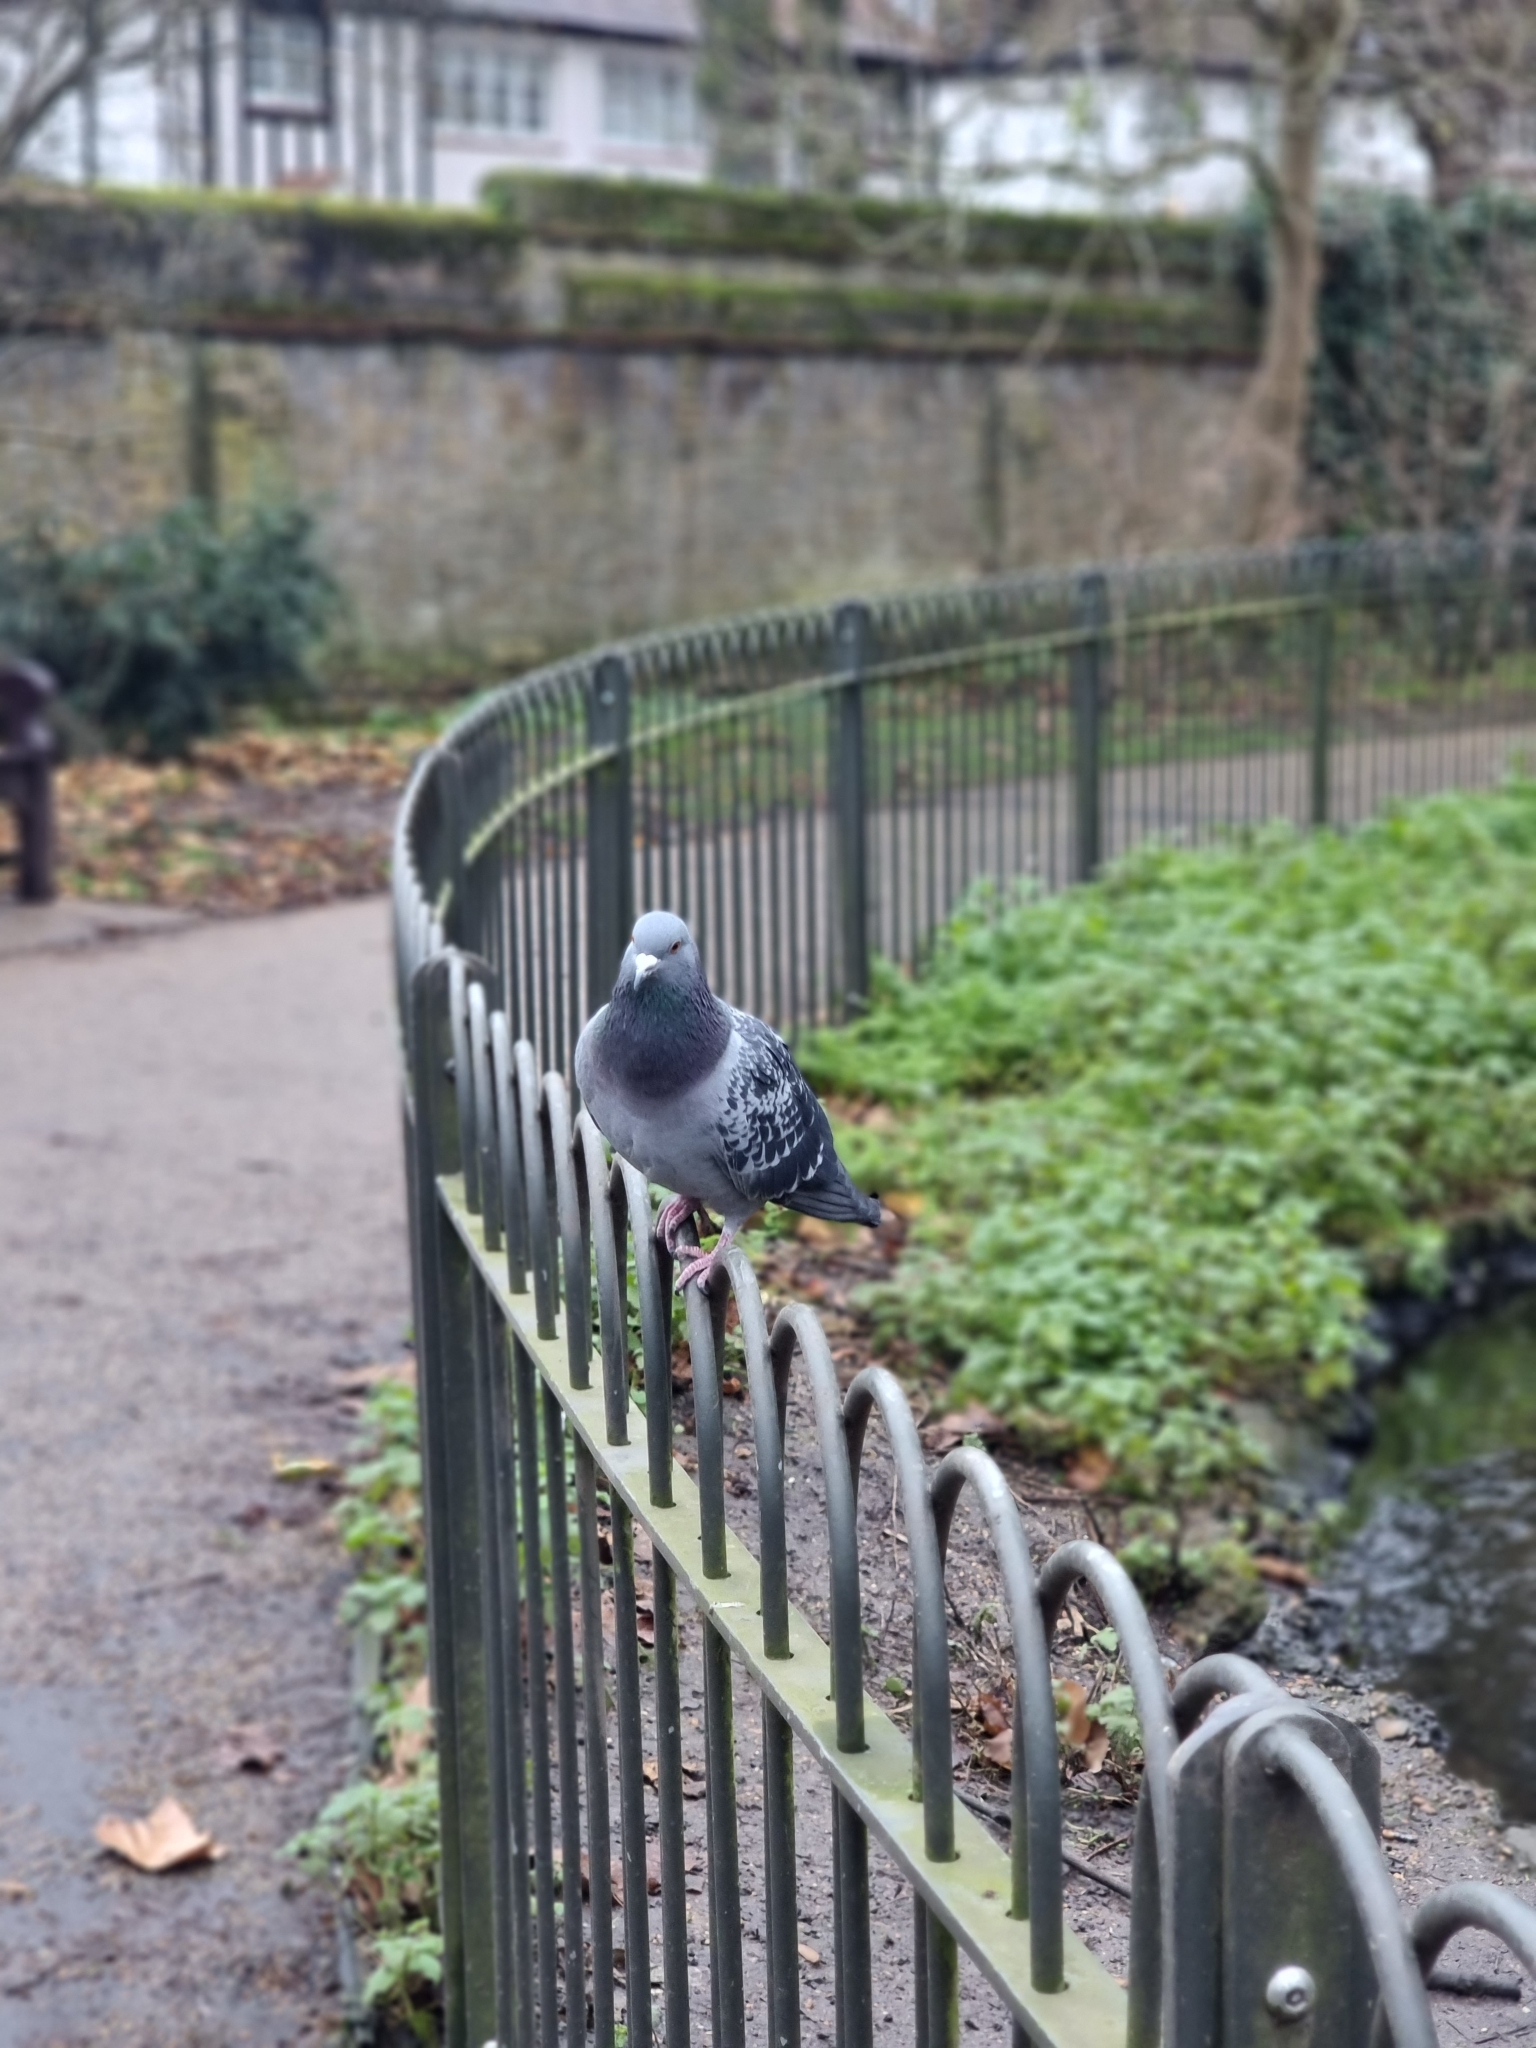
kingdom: Animalia
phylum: Chordata
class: Aves
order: Columbiformes
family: Columbidae
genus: Columba
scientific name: Columba livia
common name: Rock pigeon
